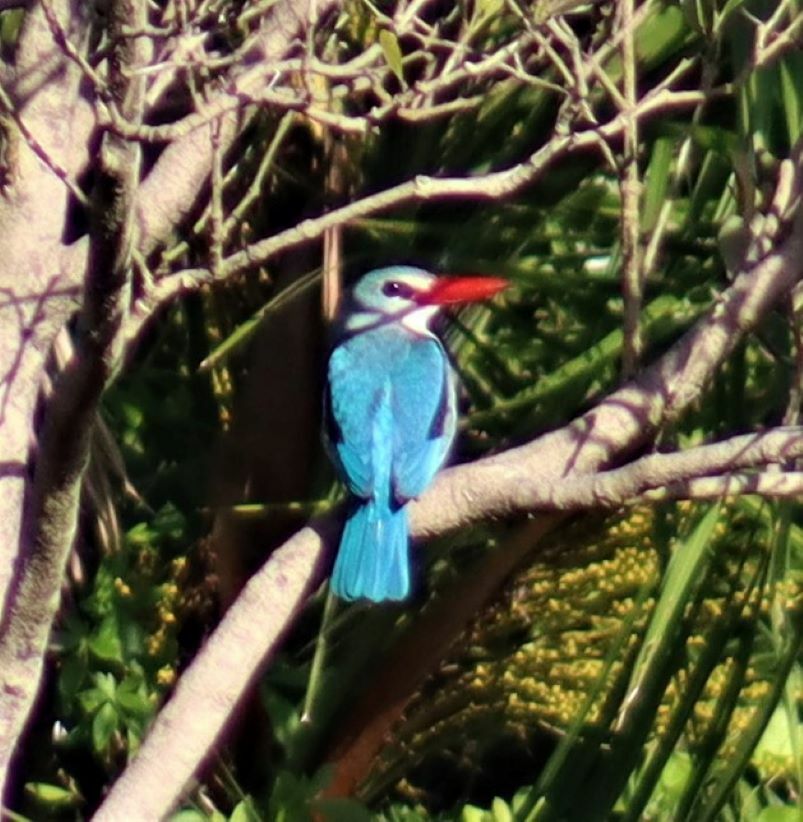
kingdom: Animalia
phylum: Chordata
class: Aves
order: Coraciiformes
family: Alcedinidae
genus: Halcyon
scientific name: Halcyon senegaloides
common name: Mangrove kingfisher
